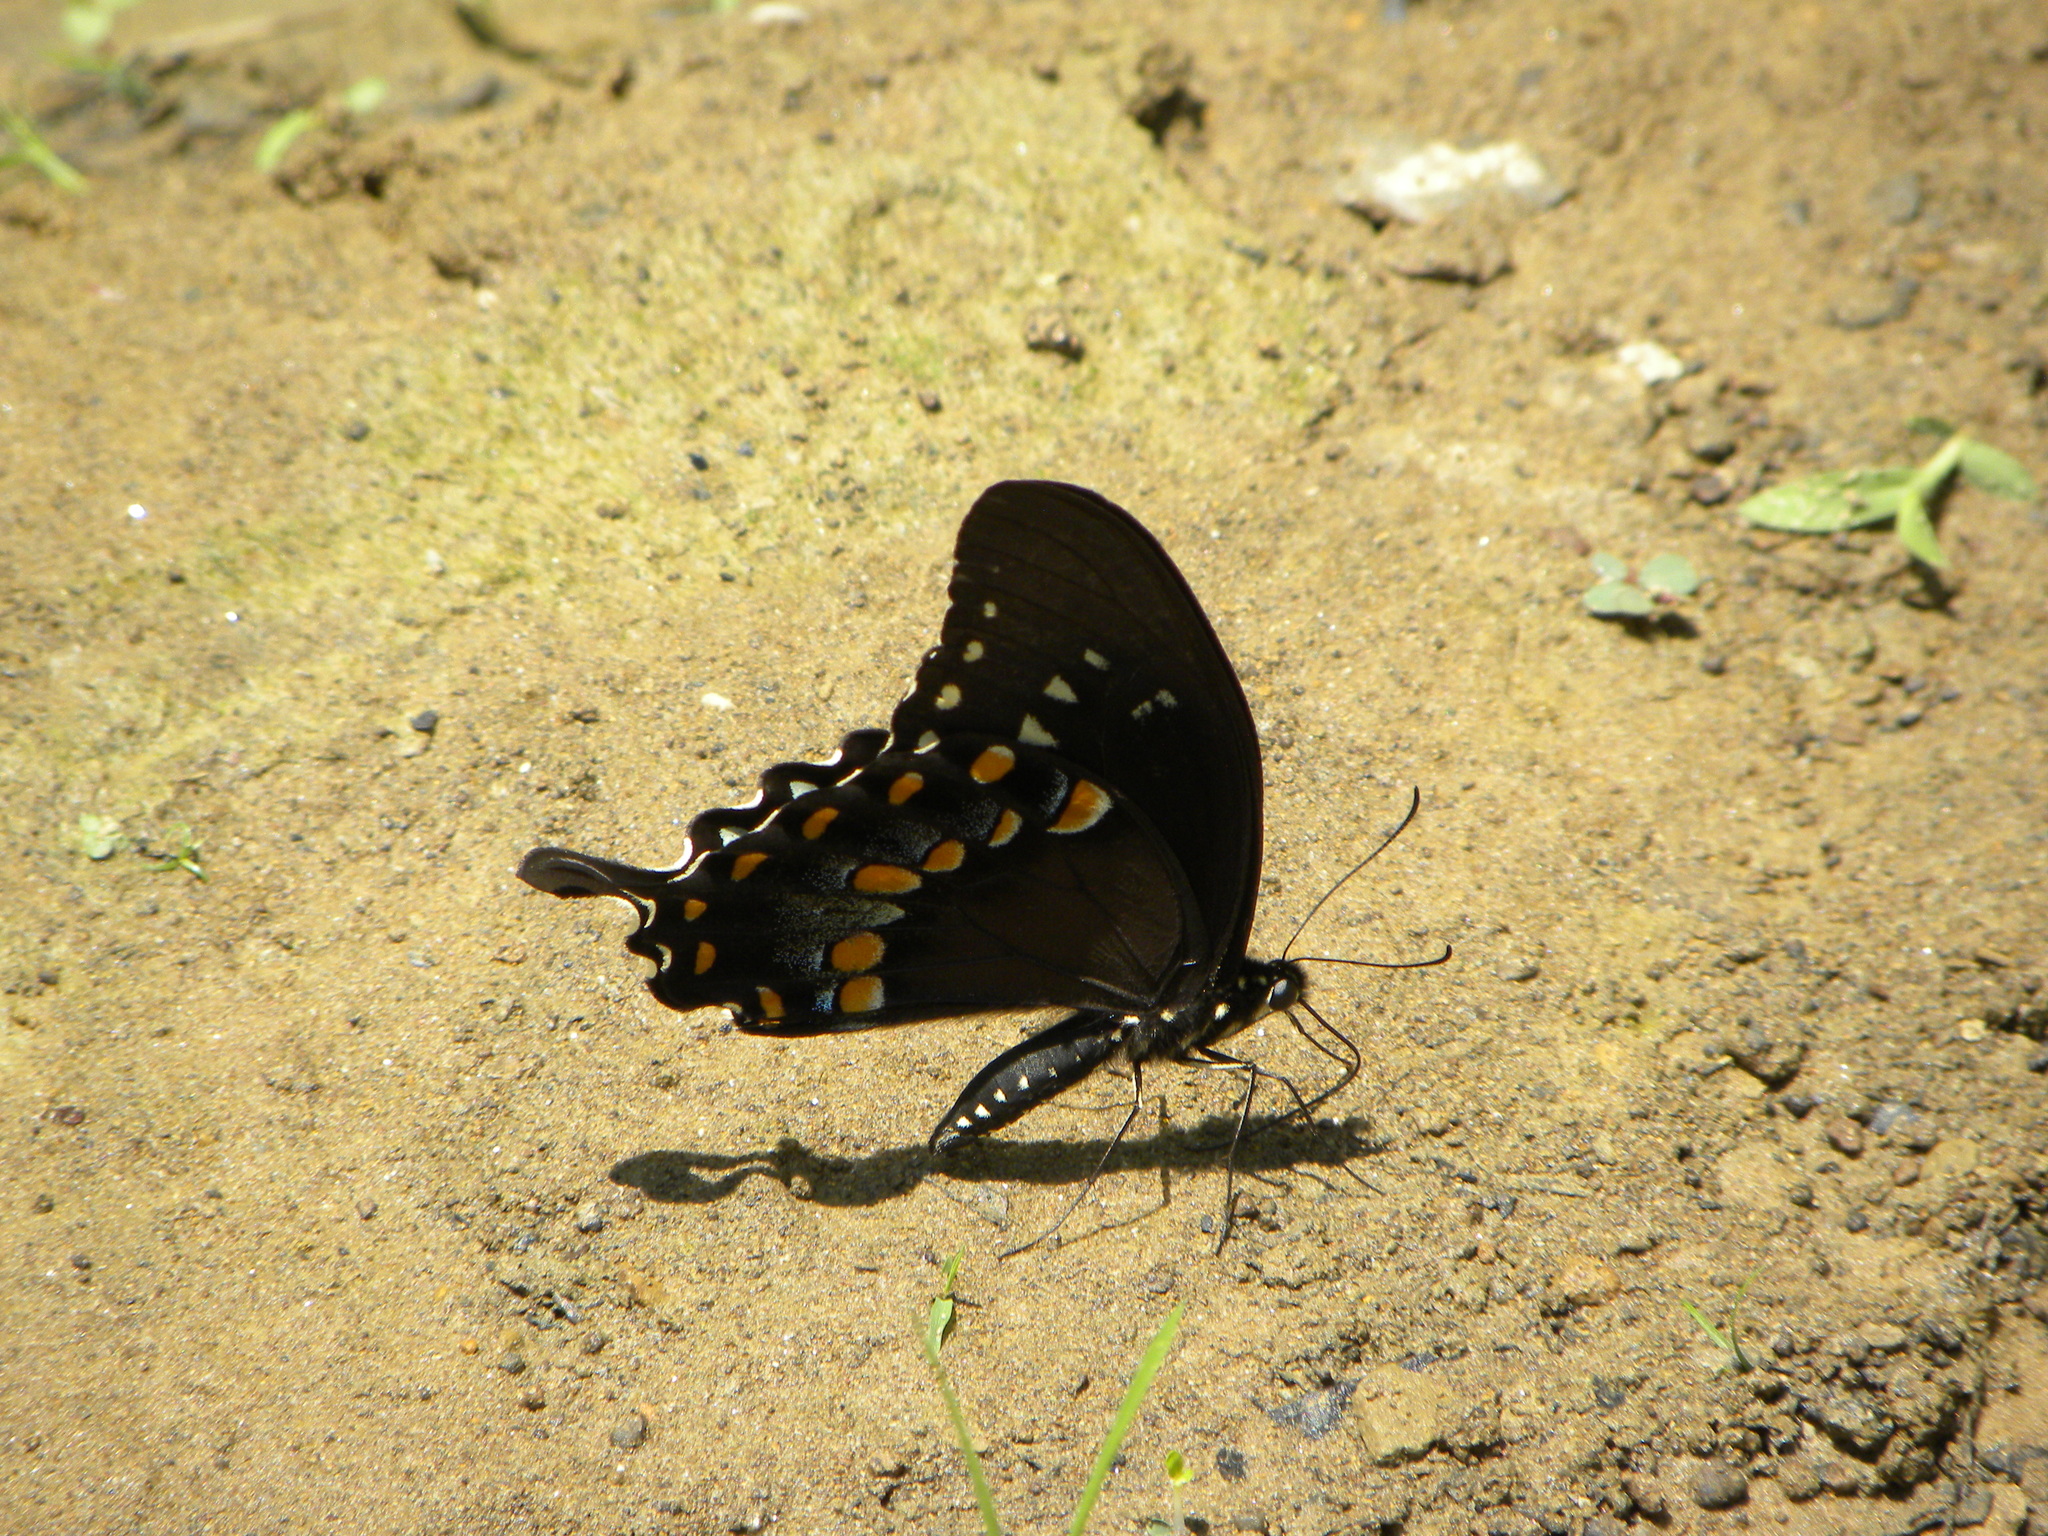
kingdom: Animalia
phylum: Arthropoda
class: Insecta
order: Lepidoptera
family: Papilionidae
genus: Papilio
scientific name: Papilio troilus
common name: Spicebush swallowtail
